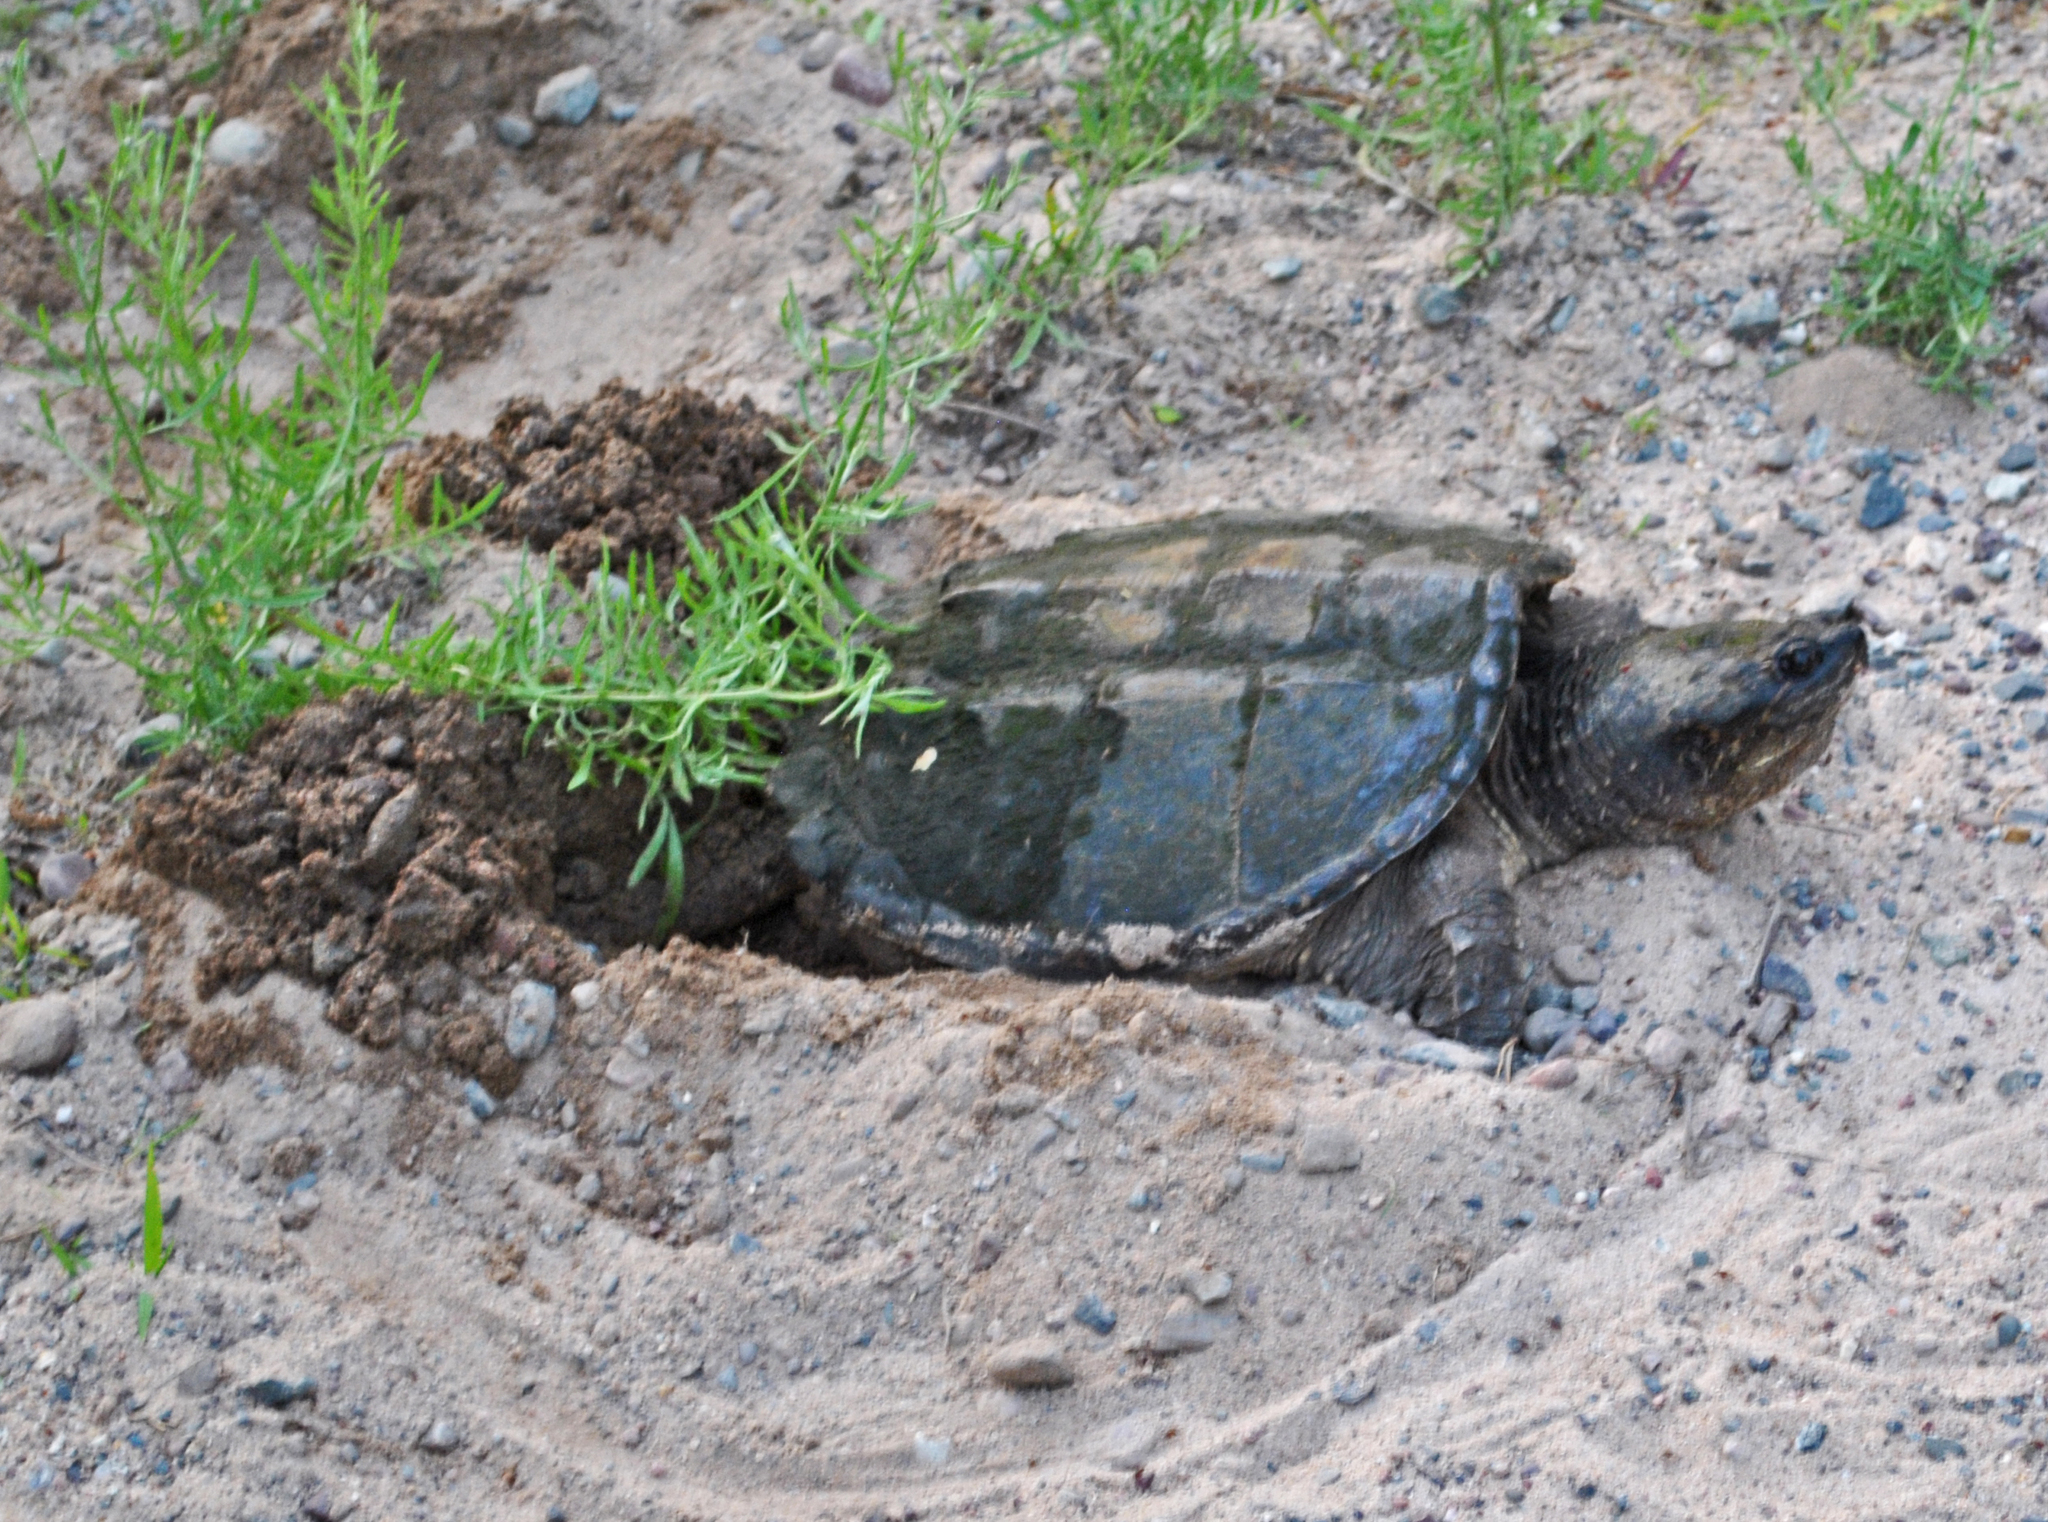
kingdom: Animalia
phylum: Chordata
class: Testudines
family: Chelydridae
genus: Chelydra
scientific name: Chelydra serpentina
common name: Common snapping turtle
